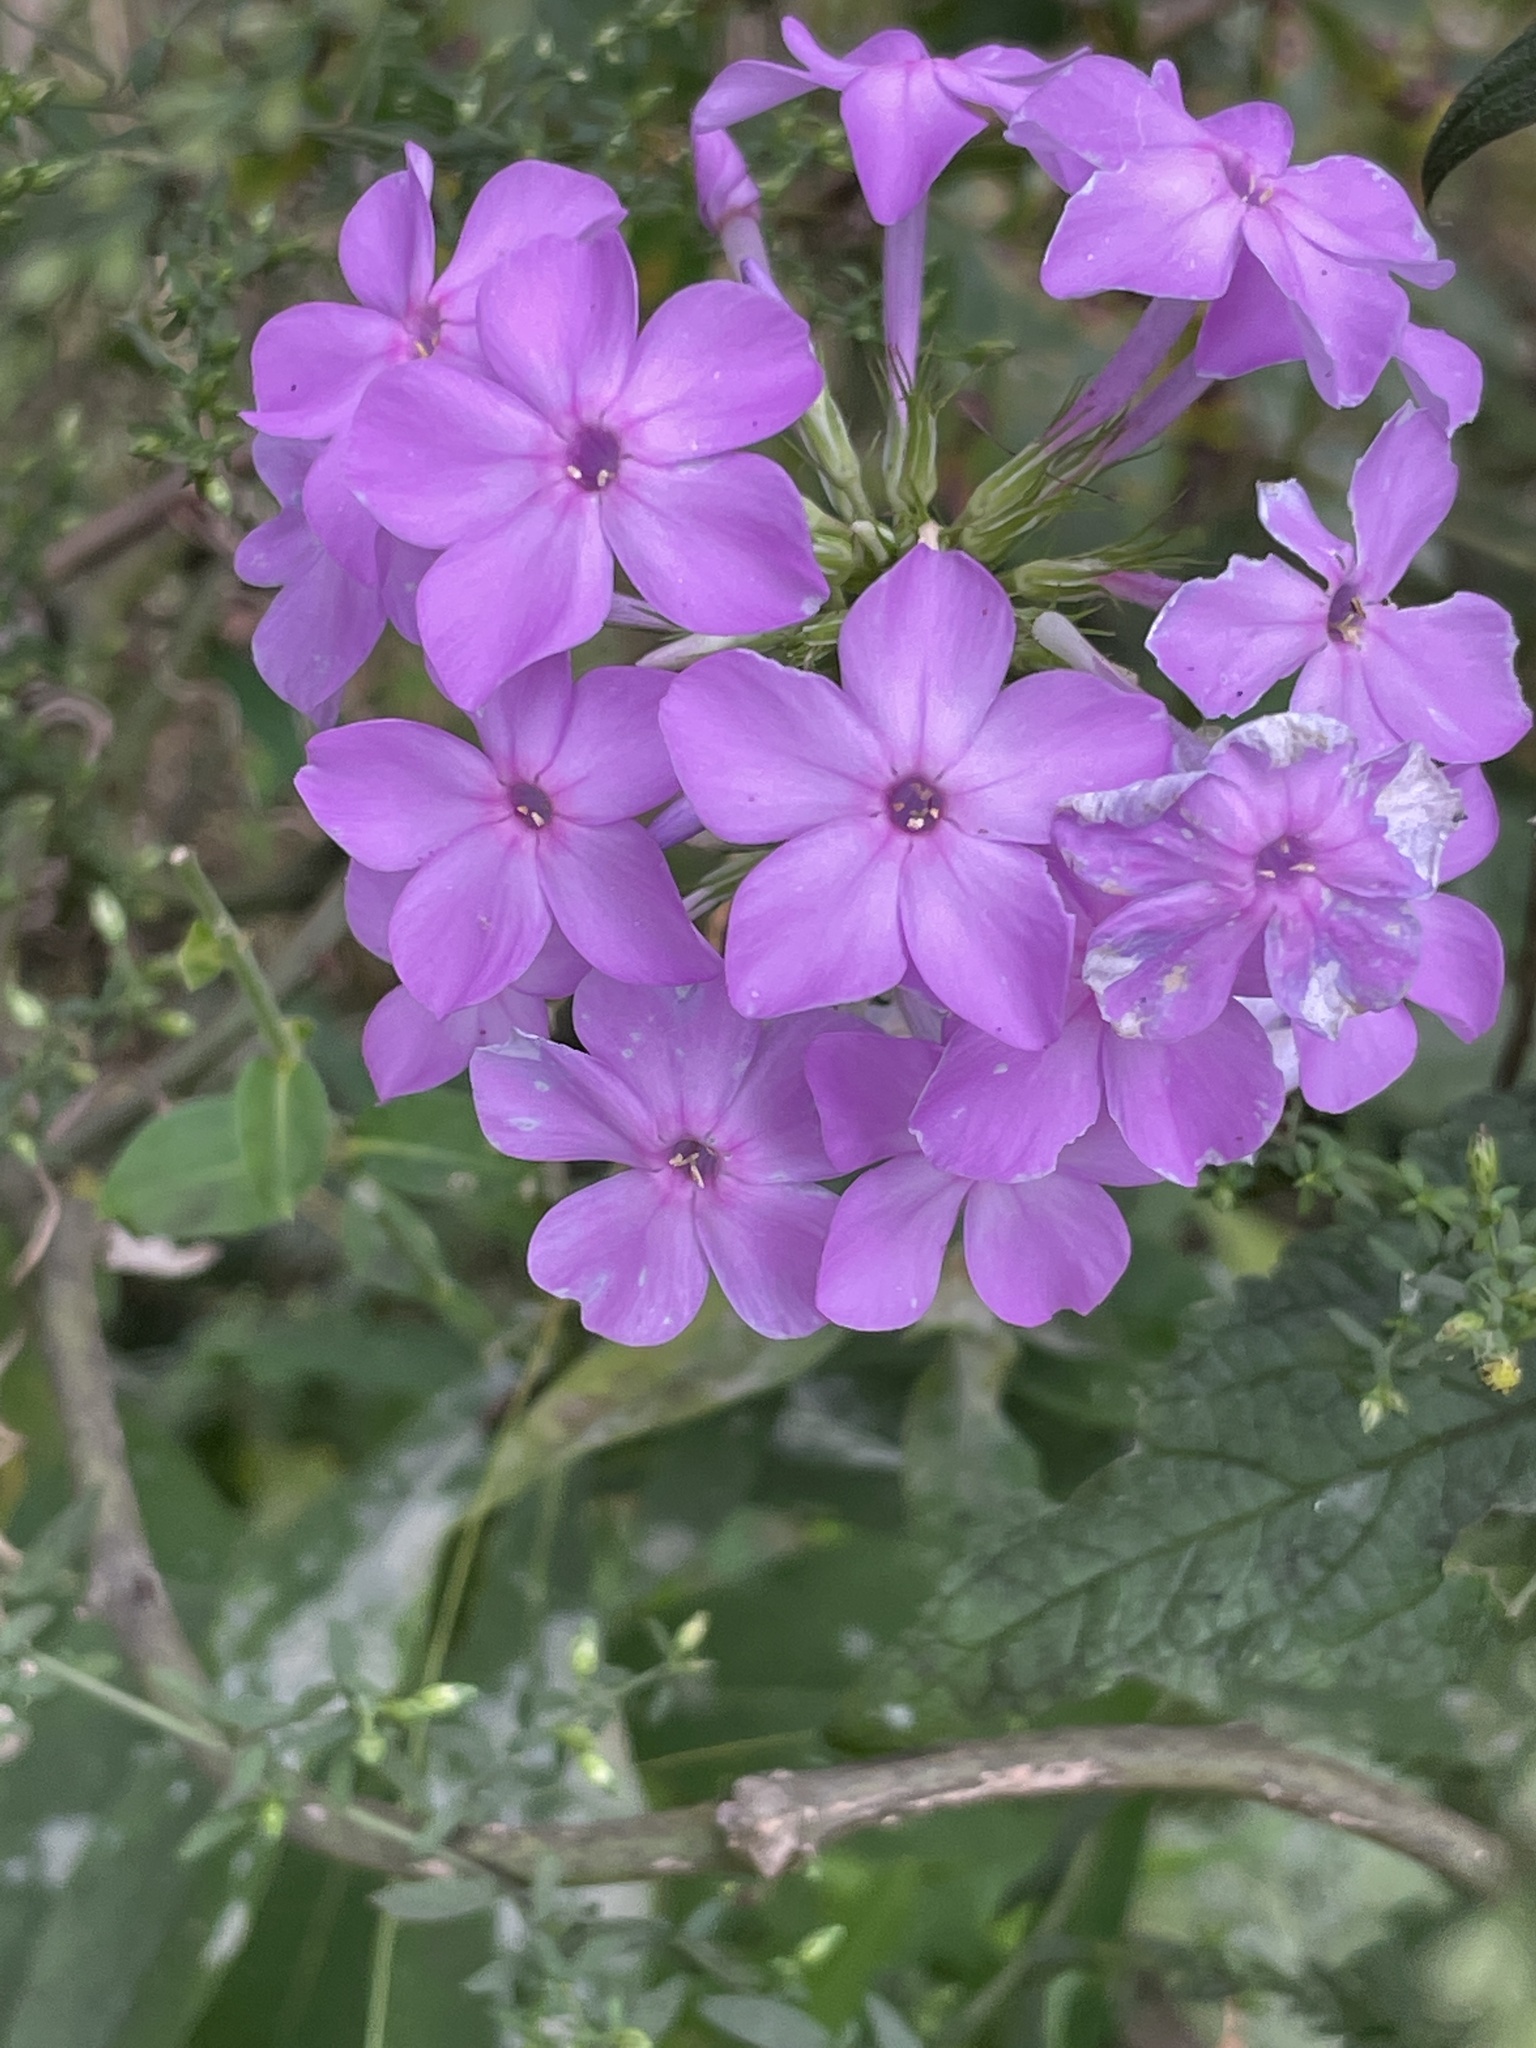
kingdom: Plantae
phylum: Tracheophyta
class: Magnoliopsida
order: Ericales
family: Polemoniaceae
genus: Phlox
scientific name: Phlox paniculata
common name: Fall phlox
